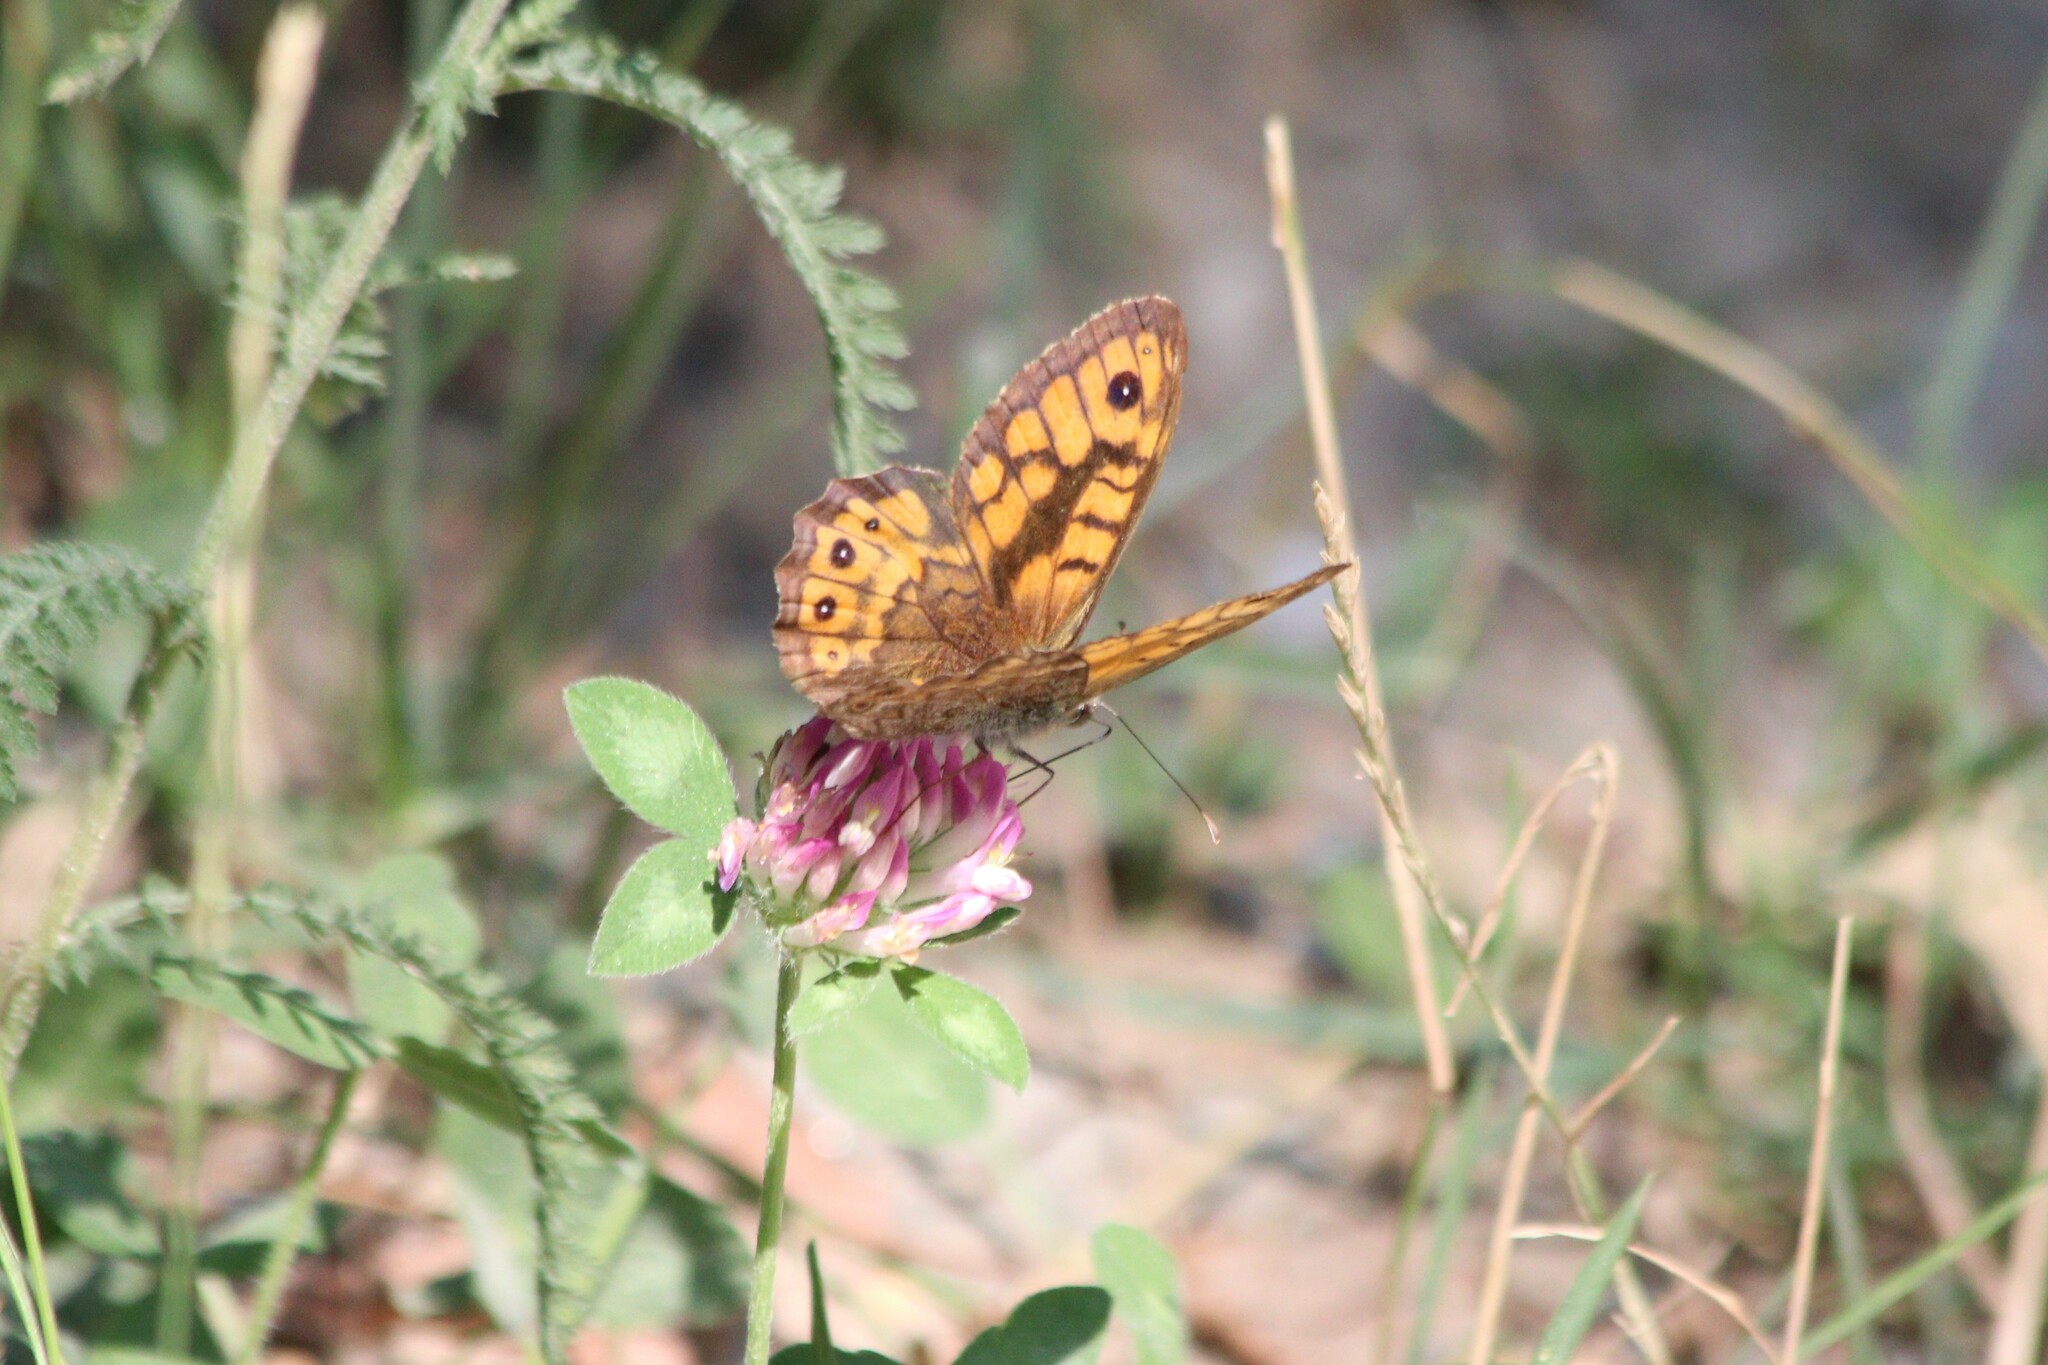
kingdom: Animalia
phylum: Arthropoda
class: Insecta
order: Lepidoptera
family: Nymphalidae
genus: Pararge
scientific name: Pararge Lasiommata megera
